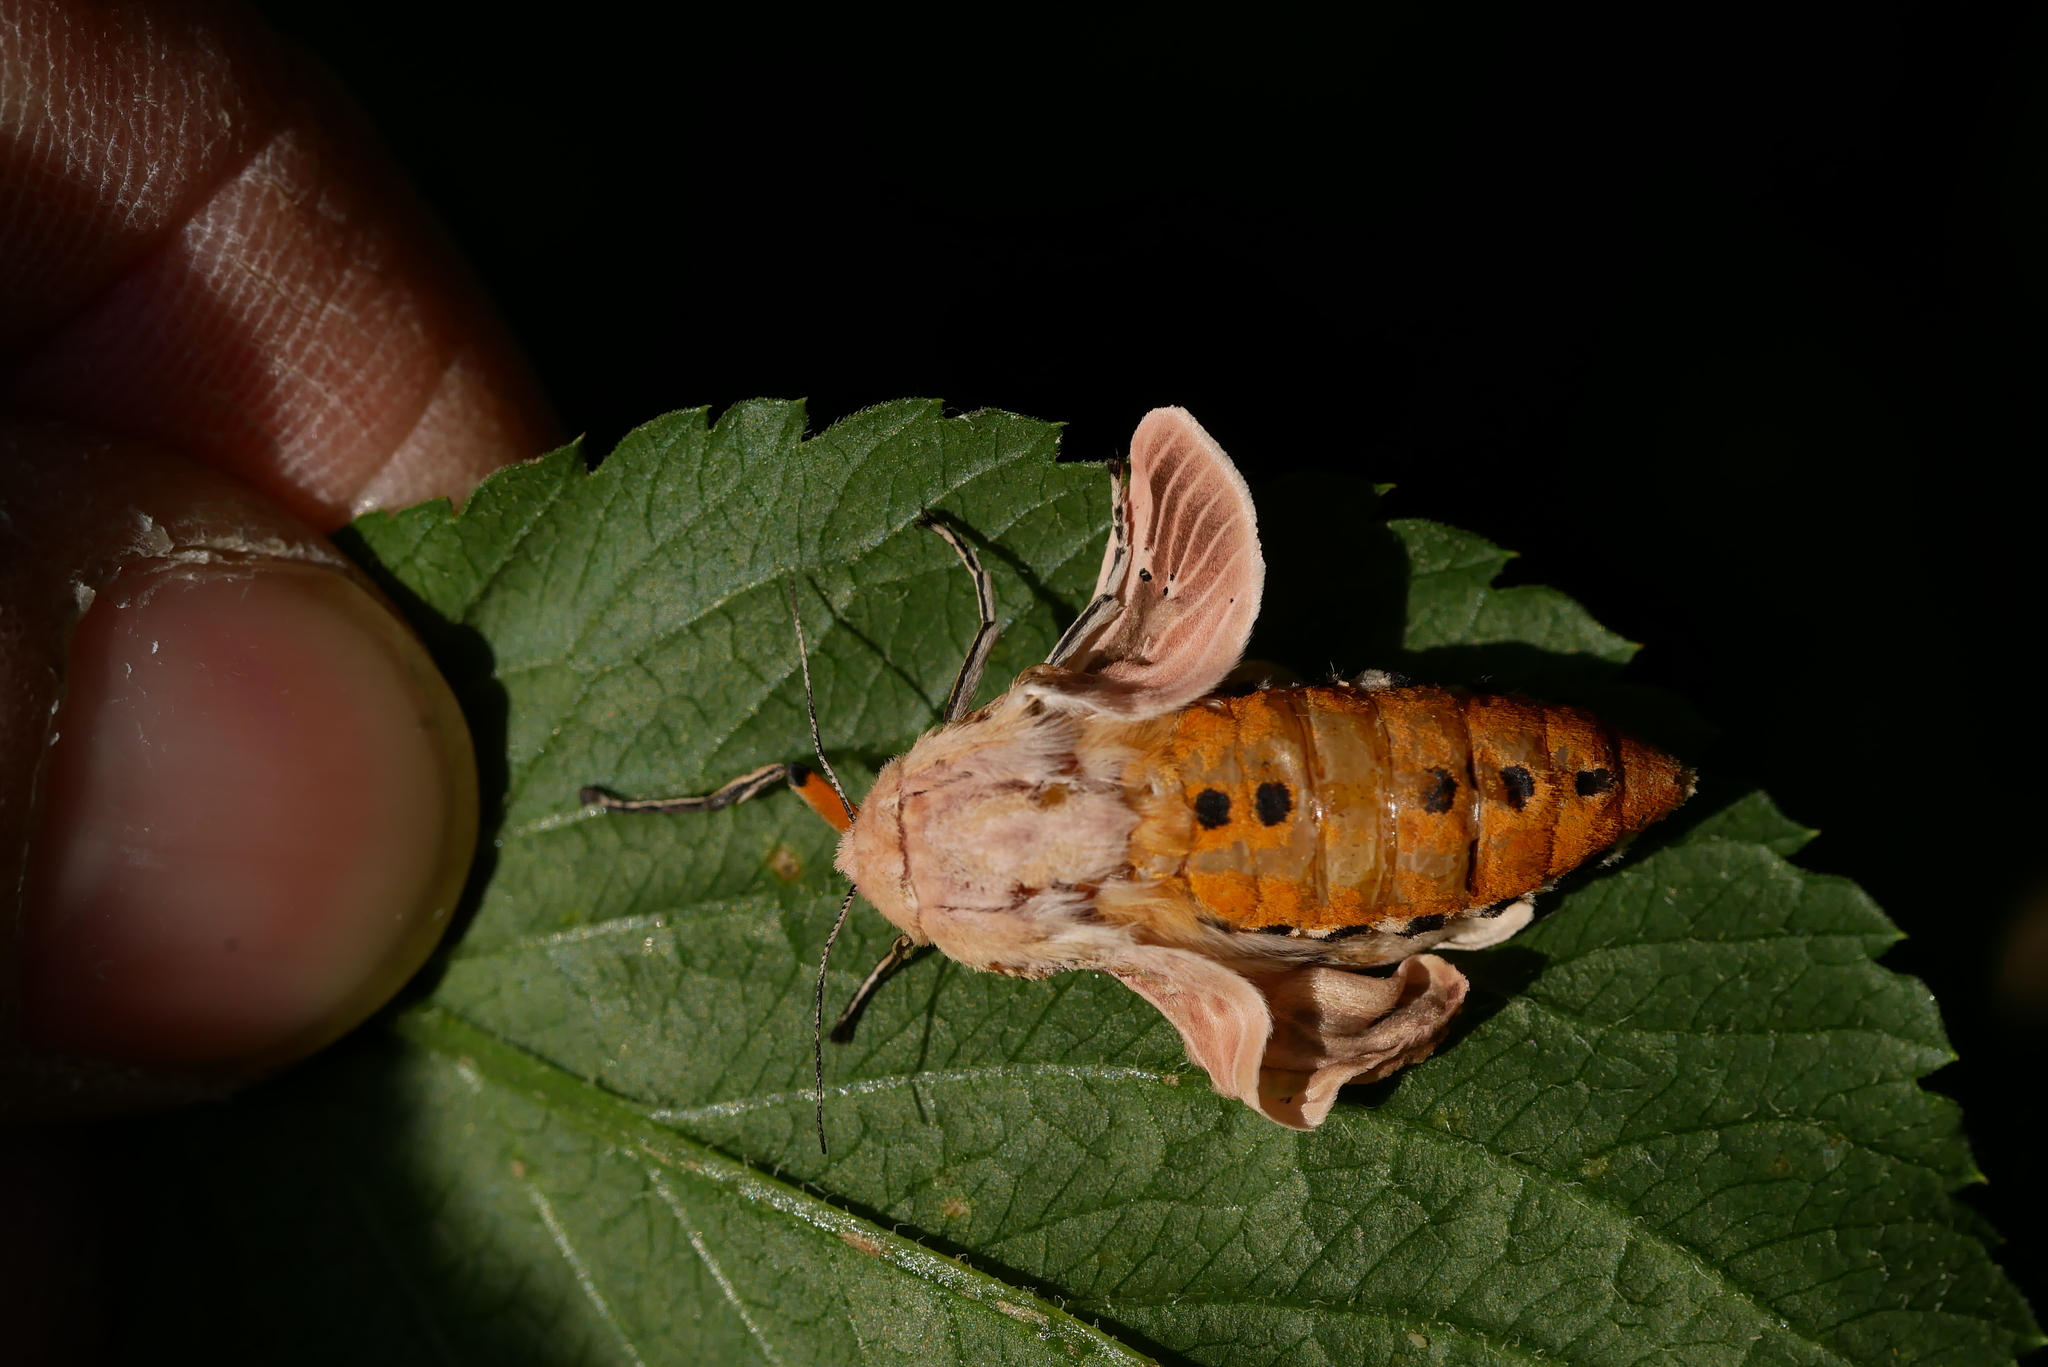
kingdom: Animalia
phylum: Arthropoda
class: Insecta
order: Lepidoptera
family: Erebidae
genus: Creatonotos
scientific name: Creatonotos transiens
